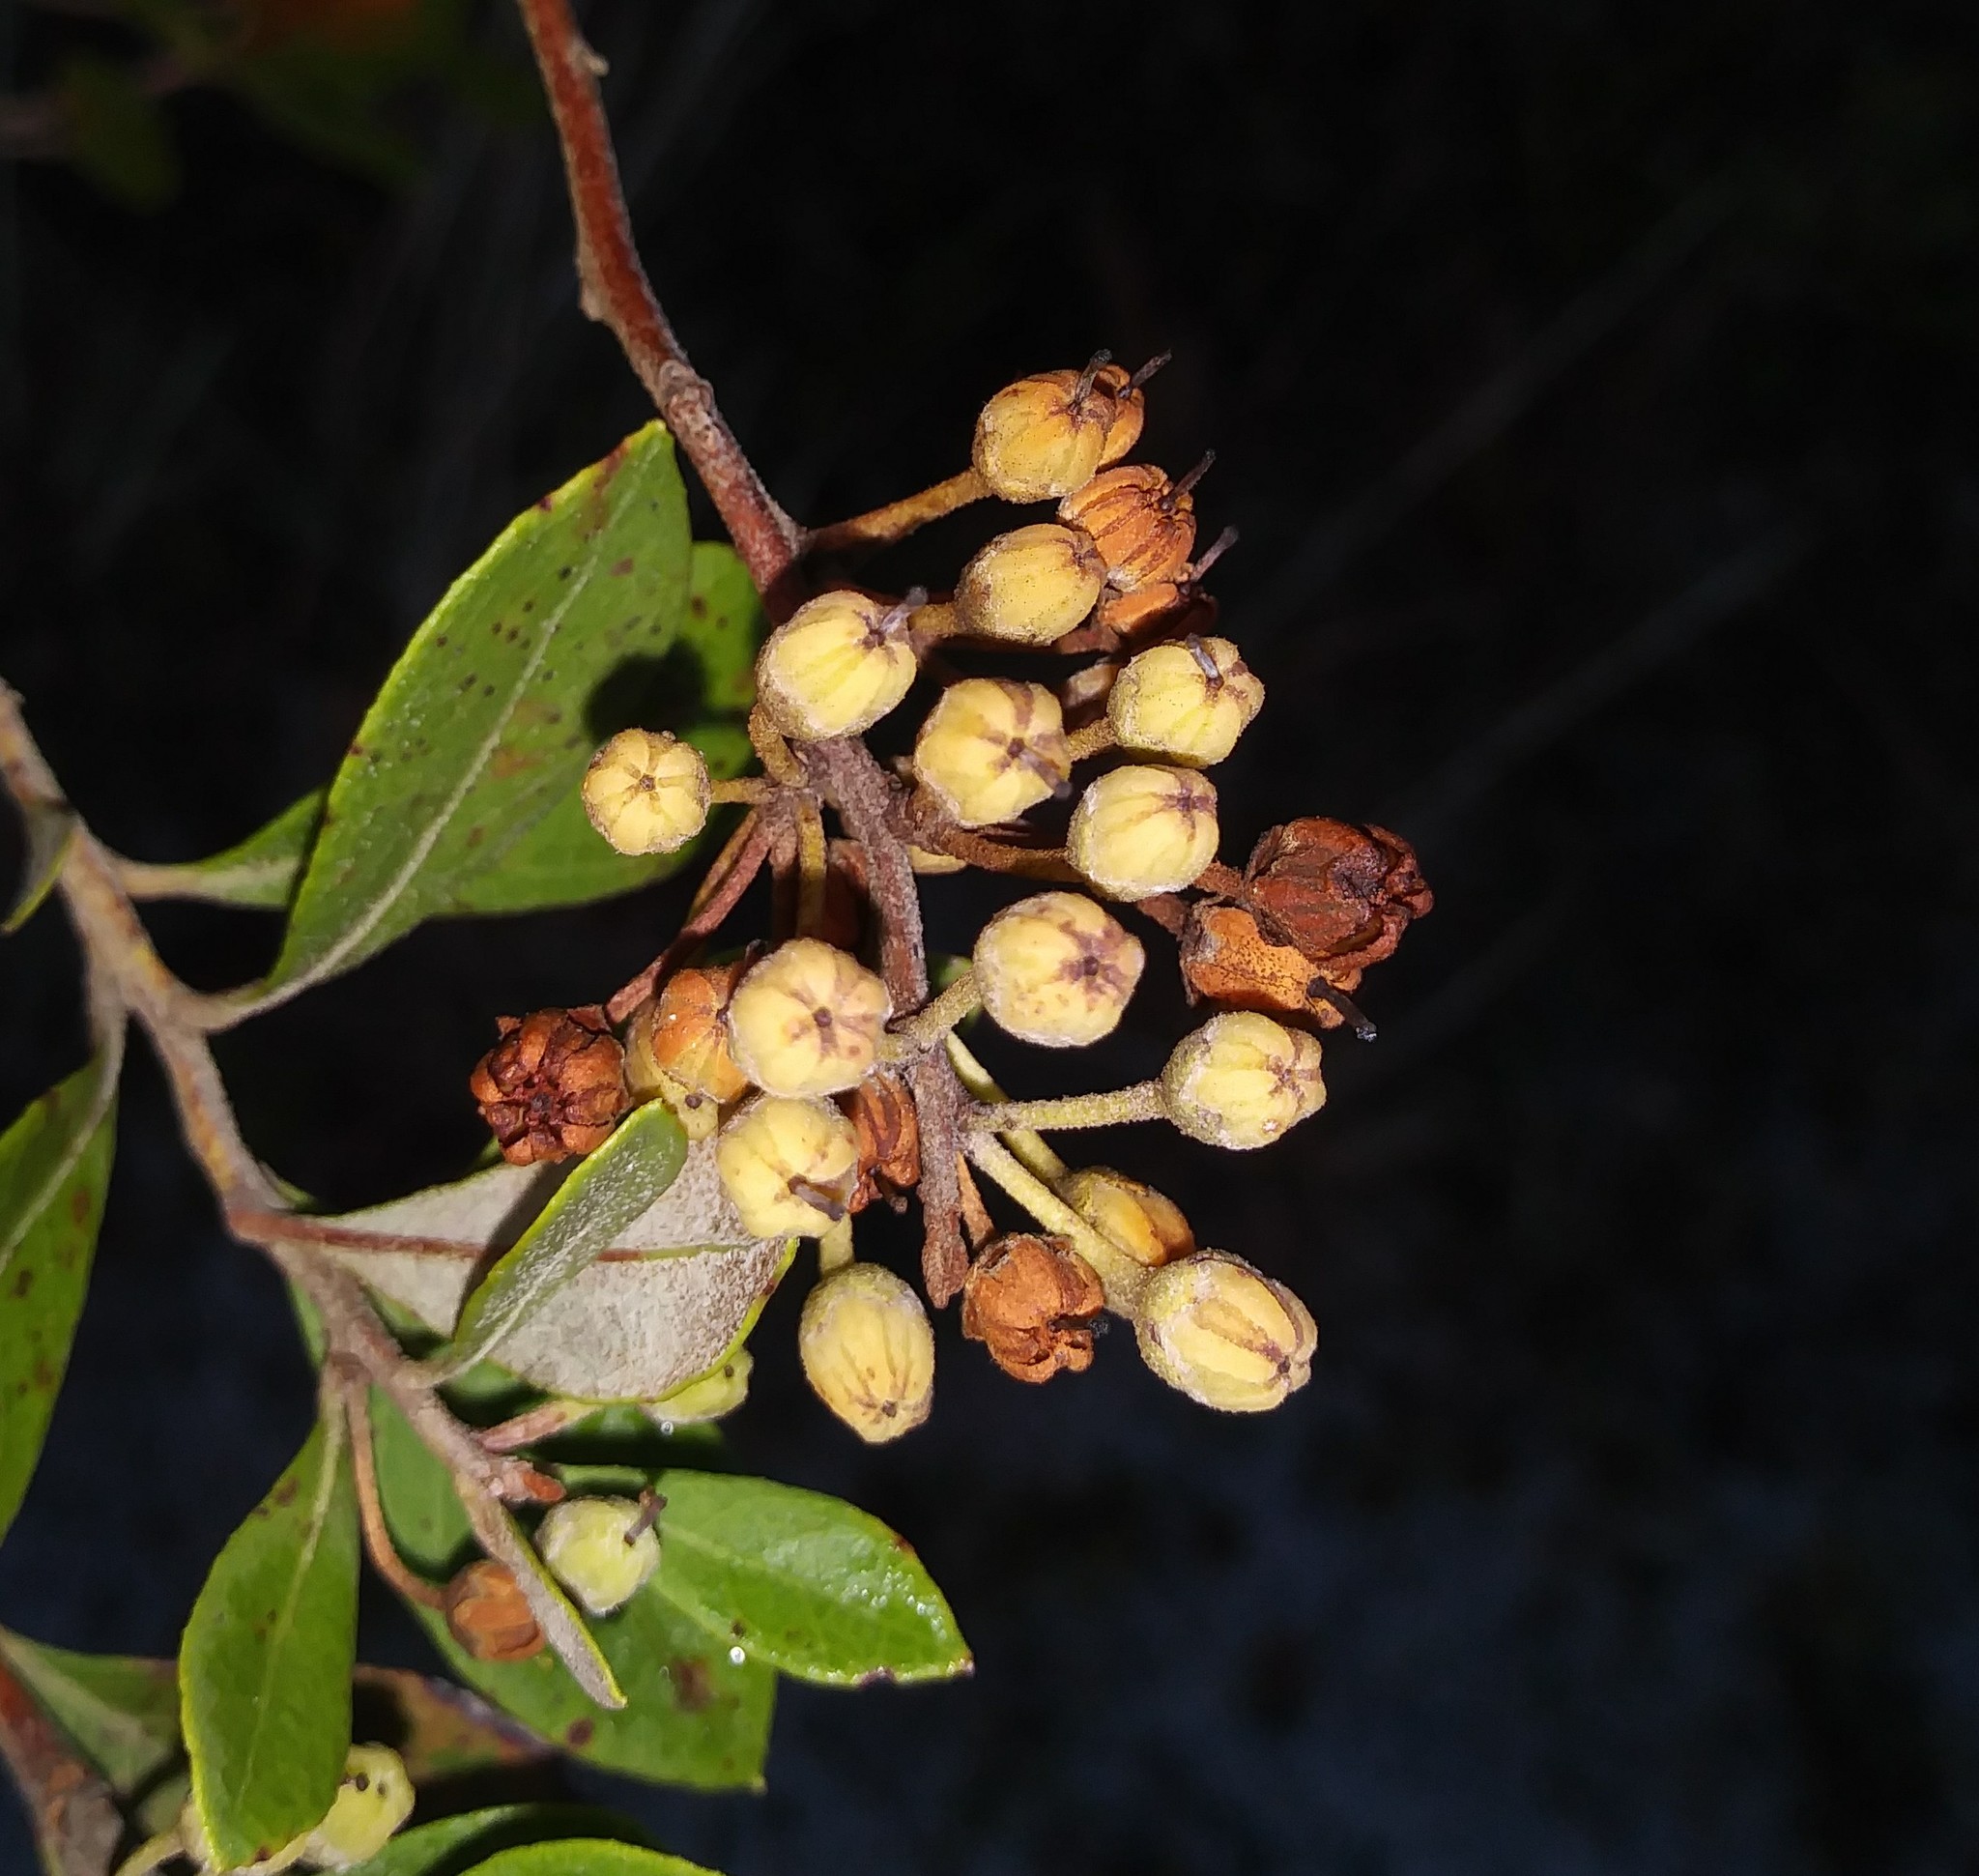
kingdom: Plantae
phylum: Tracheophyta
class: Magnoliopsida
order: Ericales
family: Ericaceae
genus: Lyonia
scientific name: Lyonia ferruginea
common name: Rusty lyonia
